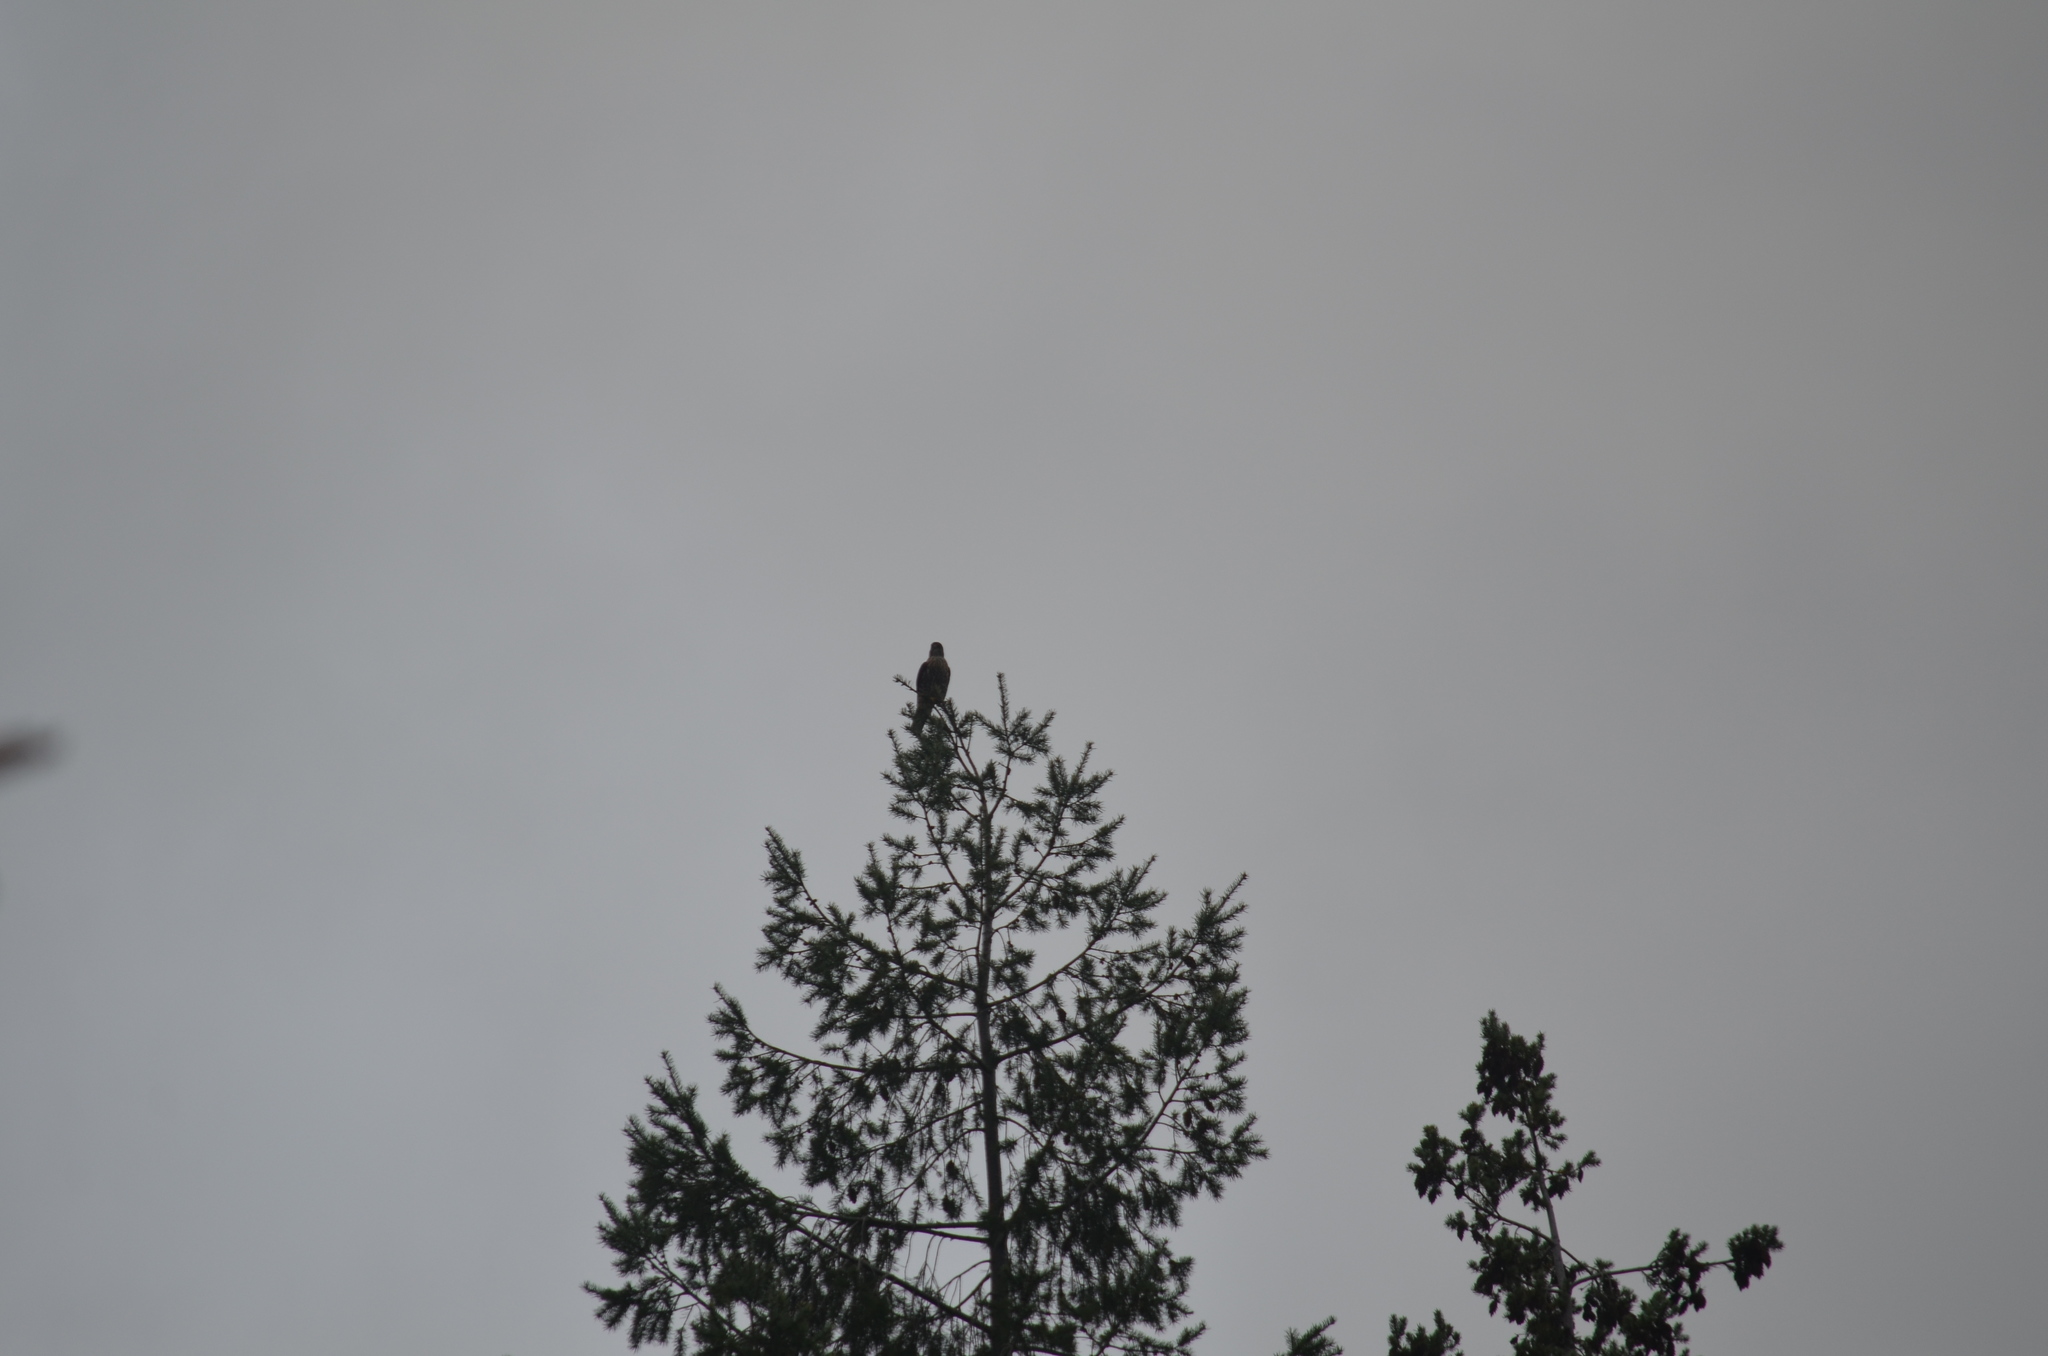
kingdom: Animalia
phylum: Chordata
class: Aves
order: Falconiformes
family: Falconidae
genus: Falco
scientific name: Falco columbarius
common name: Merlin
